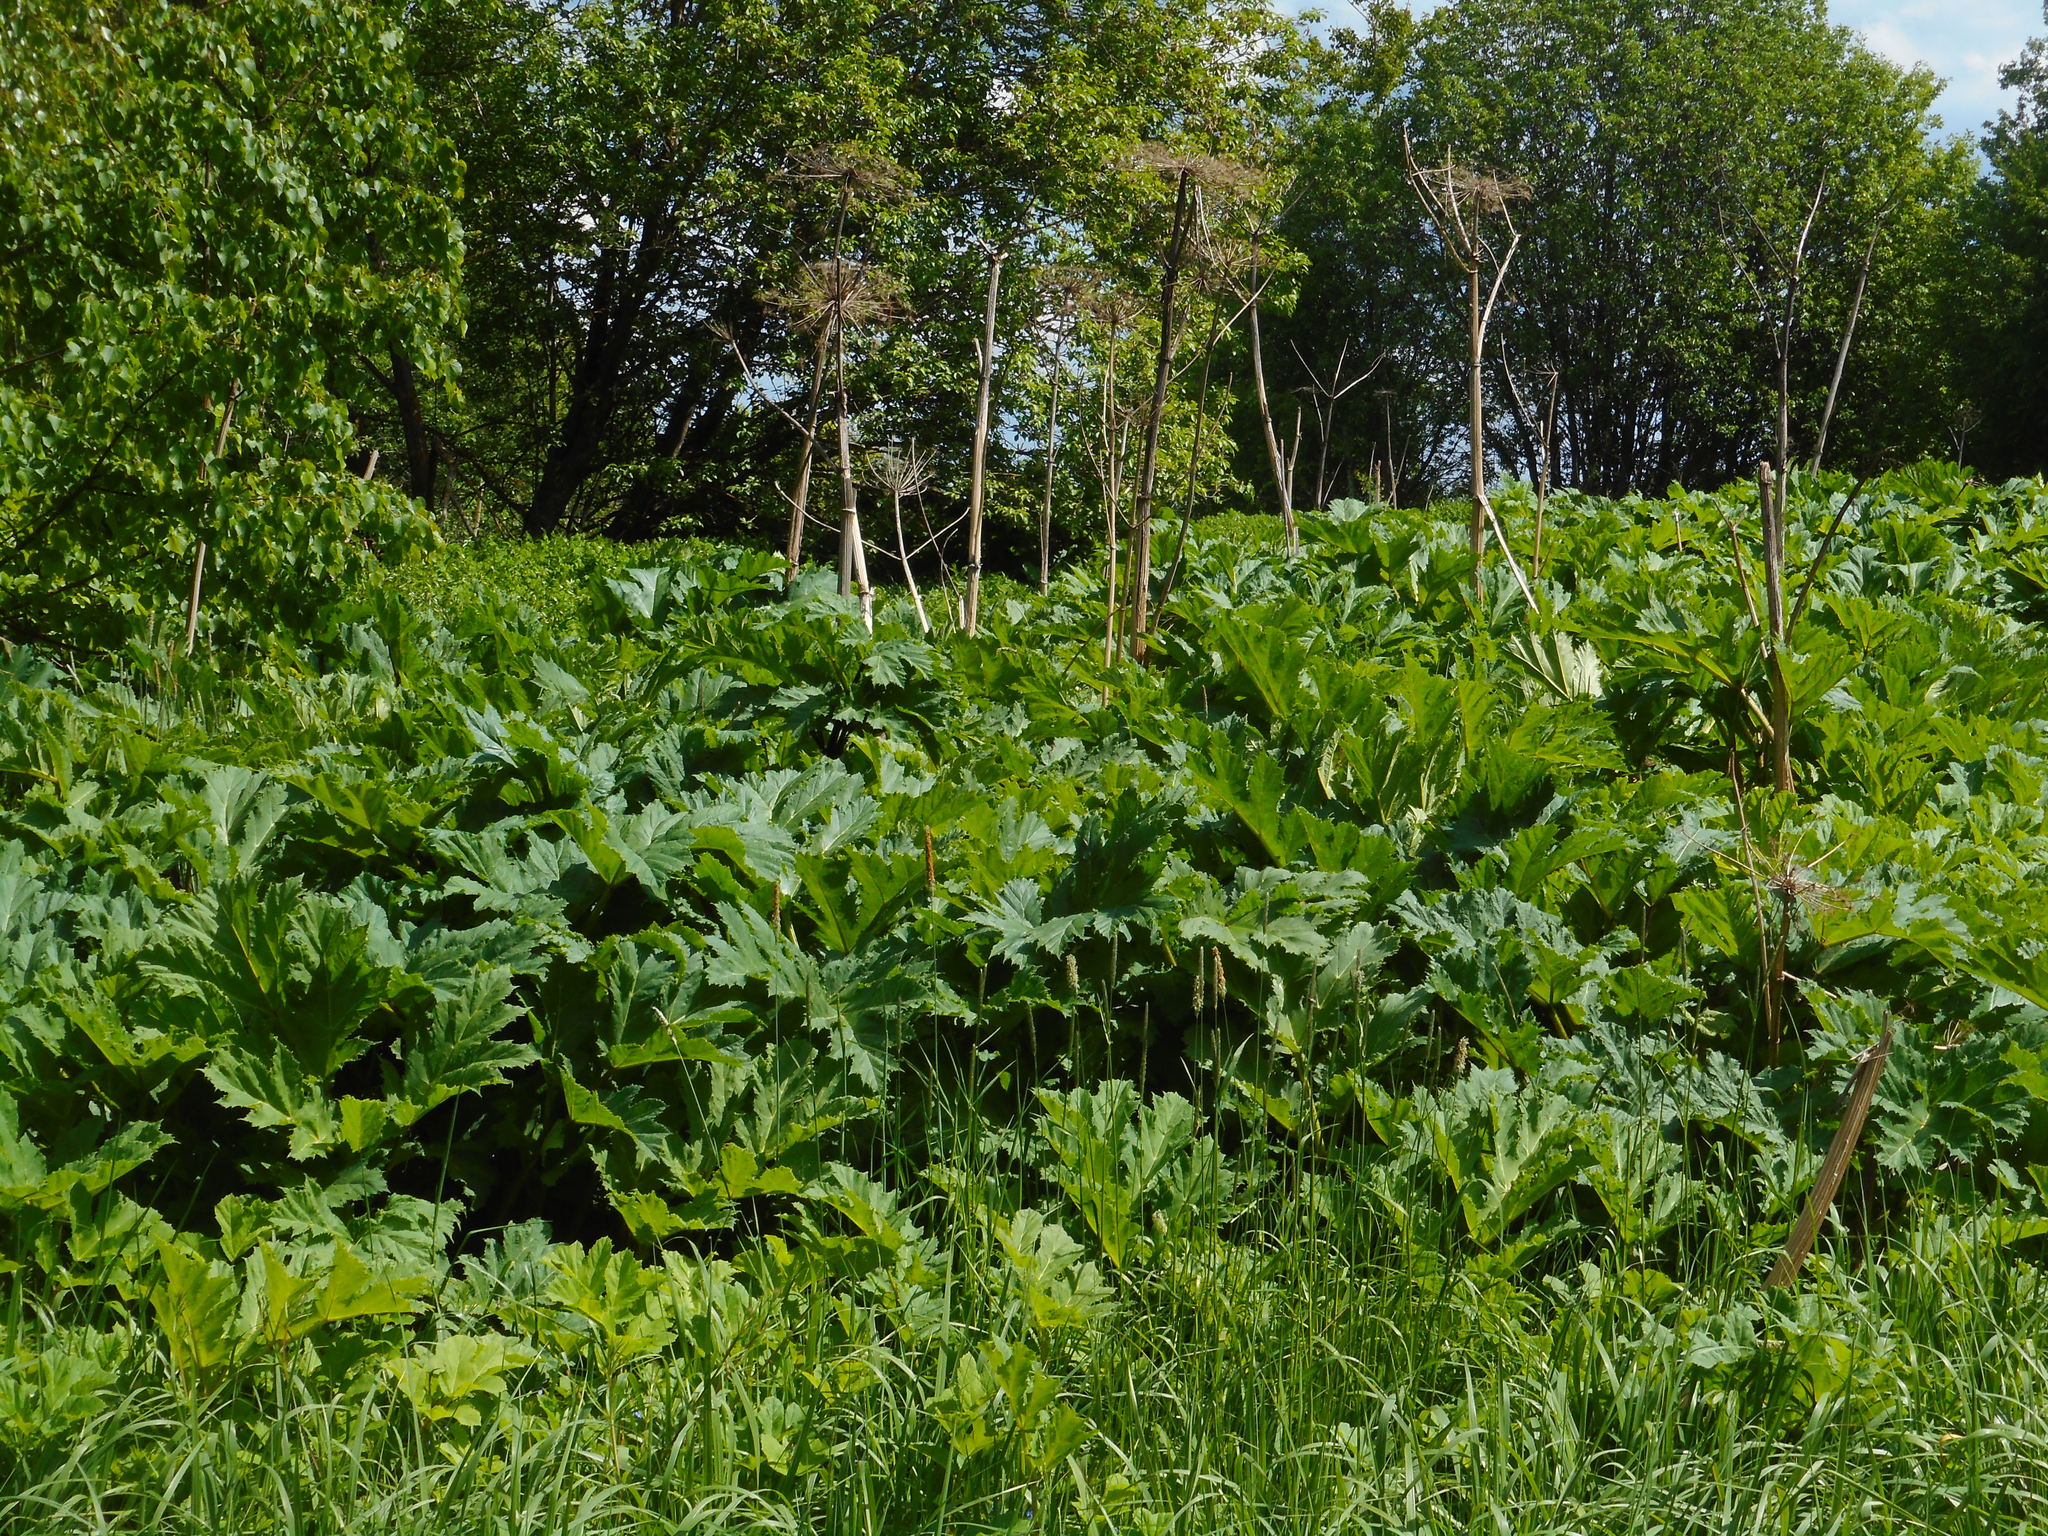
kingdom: Plantae
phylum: Tracheophyta
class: Magnoliopsida
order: Apiales
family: Apiaceae
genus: Heracleum
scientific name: Heracleum sosnowskyi
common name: Sosnowsky's hogweed
